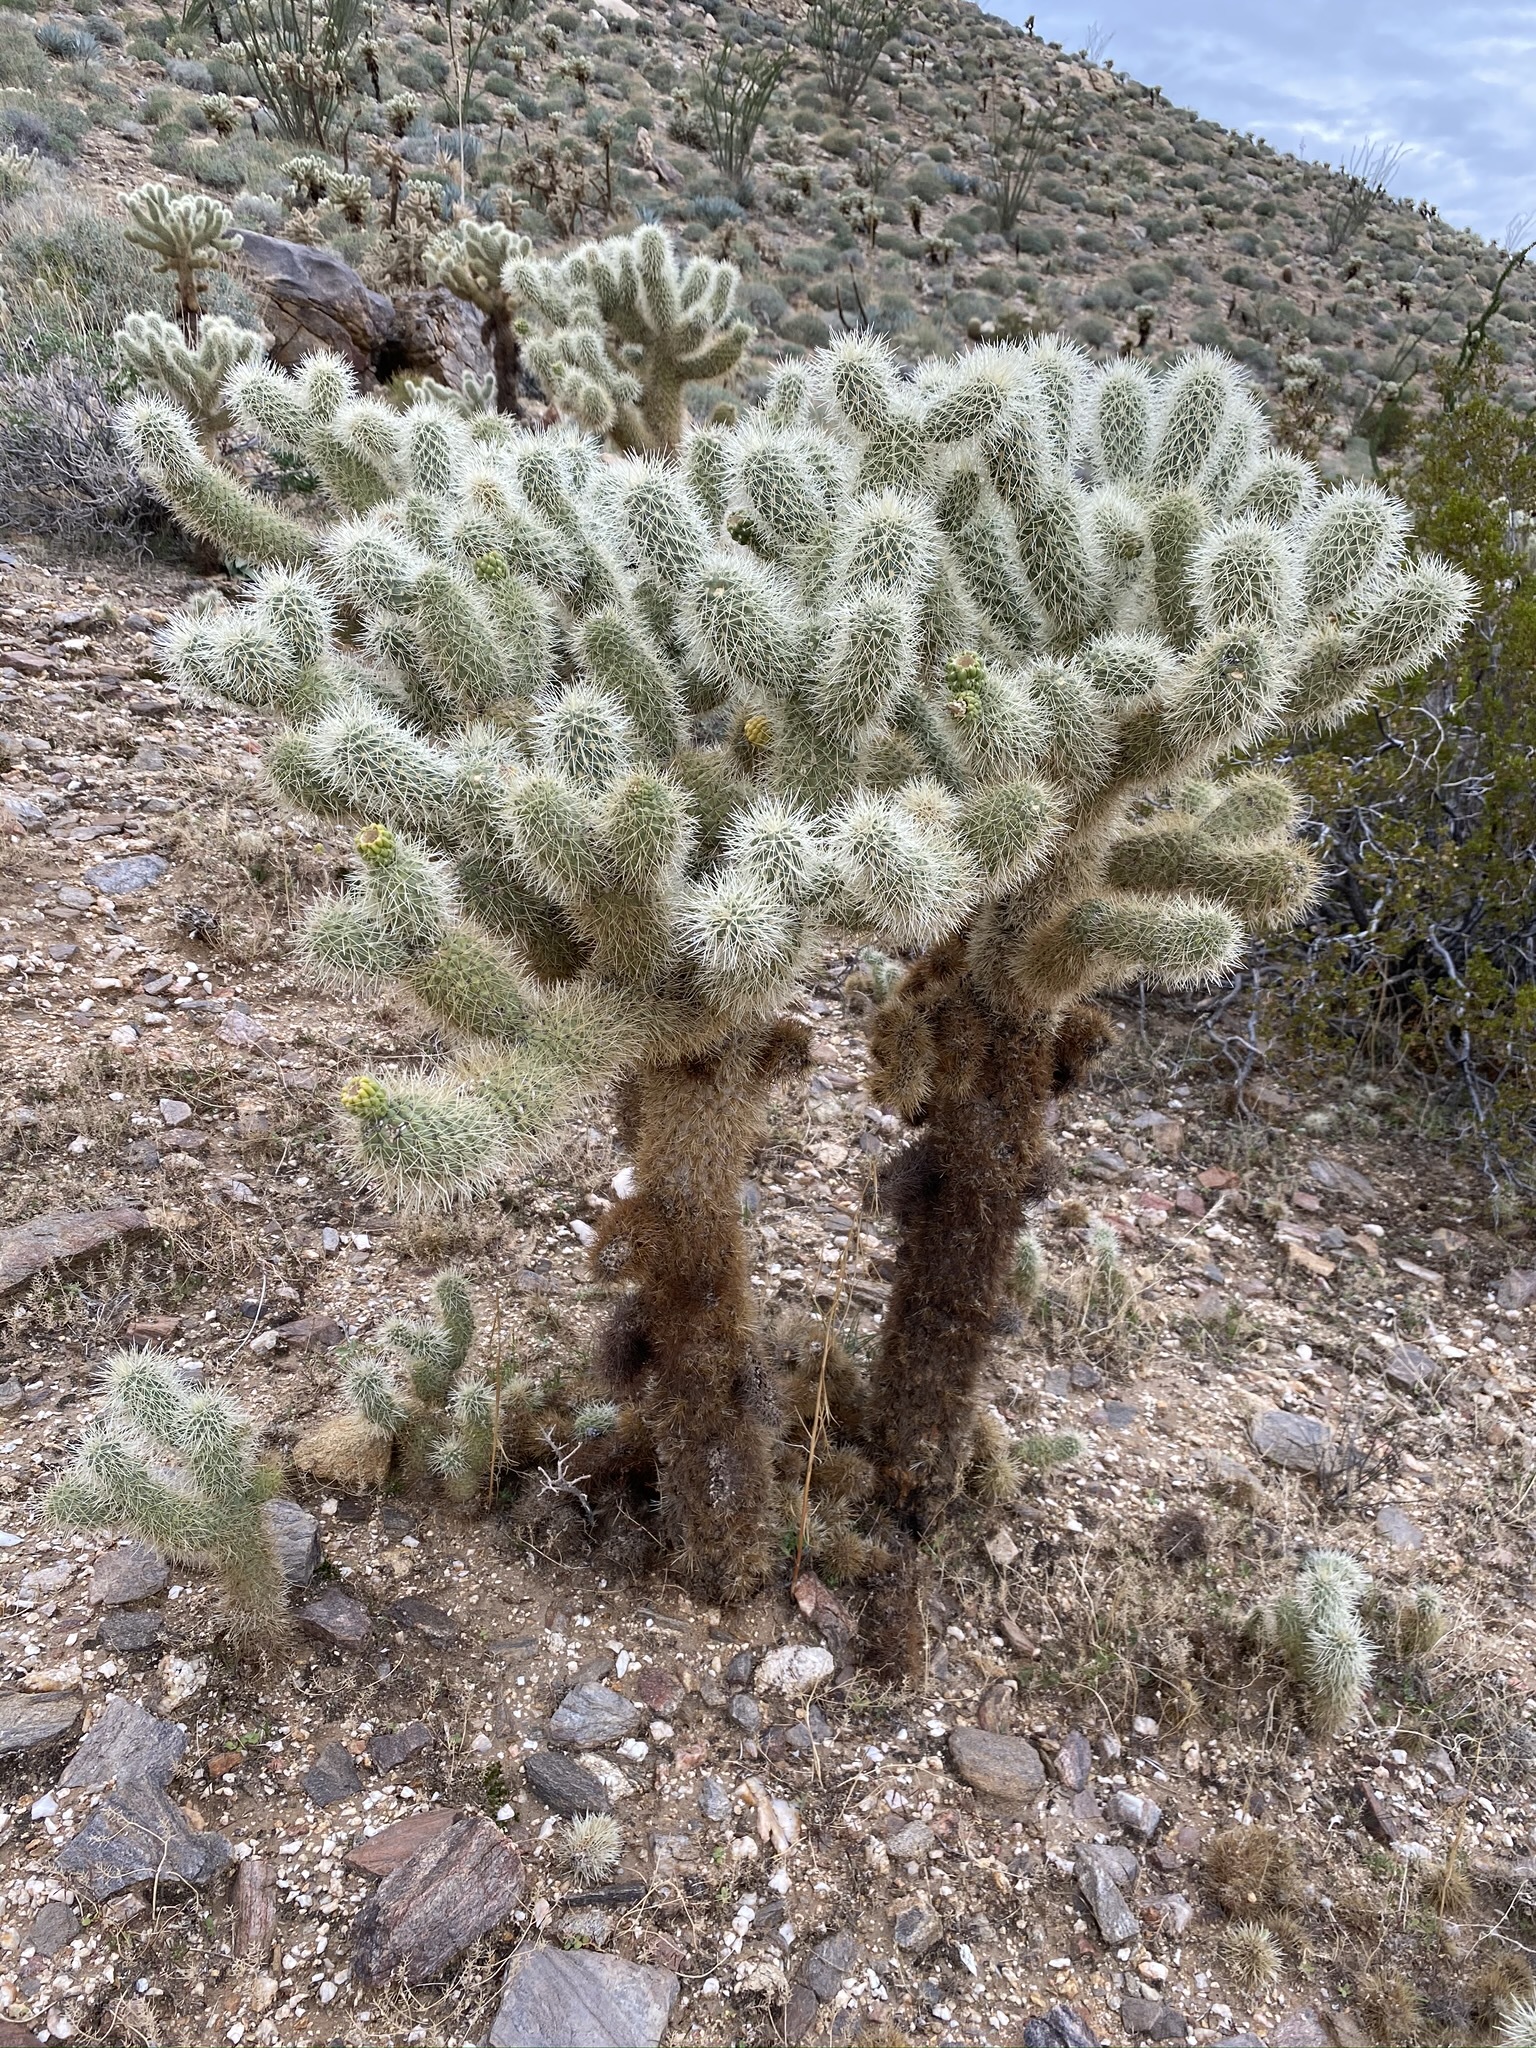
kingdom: Plantae
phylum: Tracheophyta
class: Magnoliopsida
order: Caryophyllales
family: Cactaceae
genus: Cylindropuntia
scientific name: Cylindropuntia fosbergii
